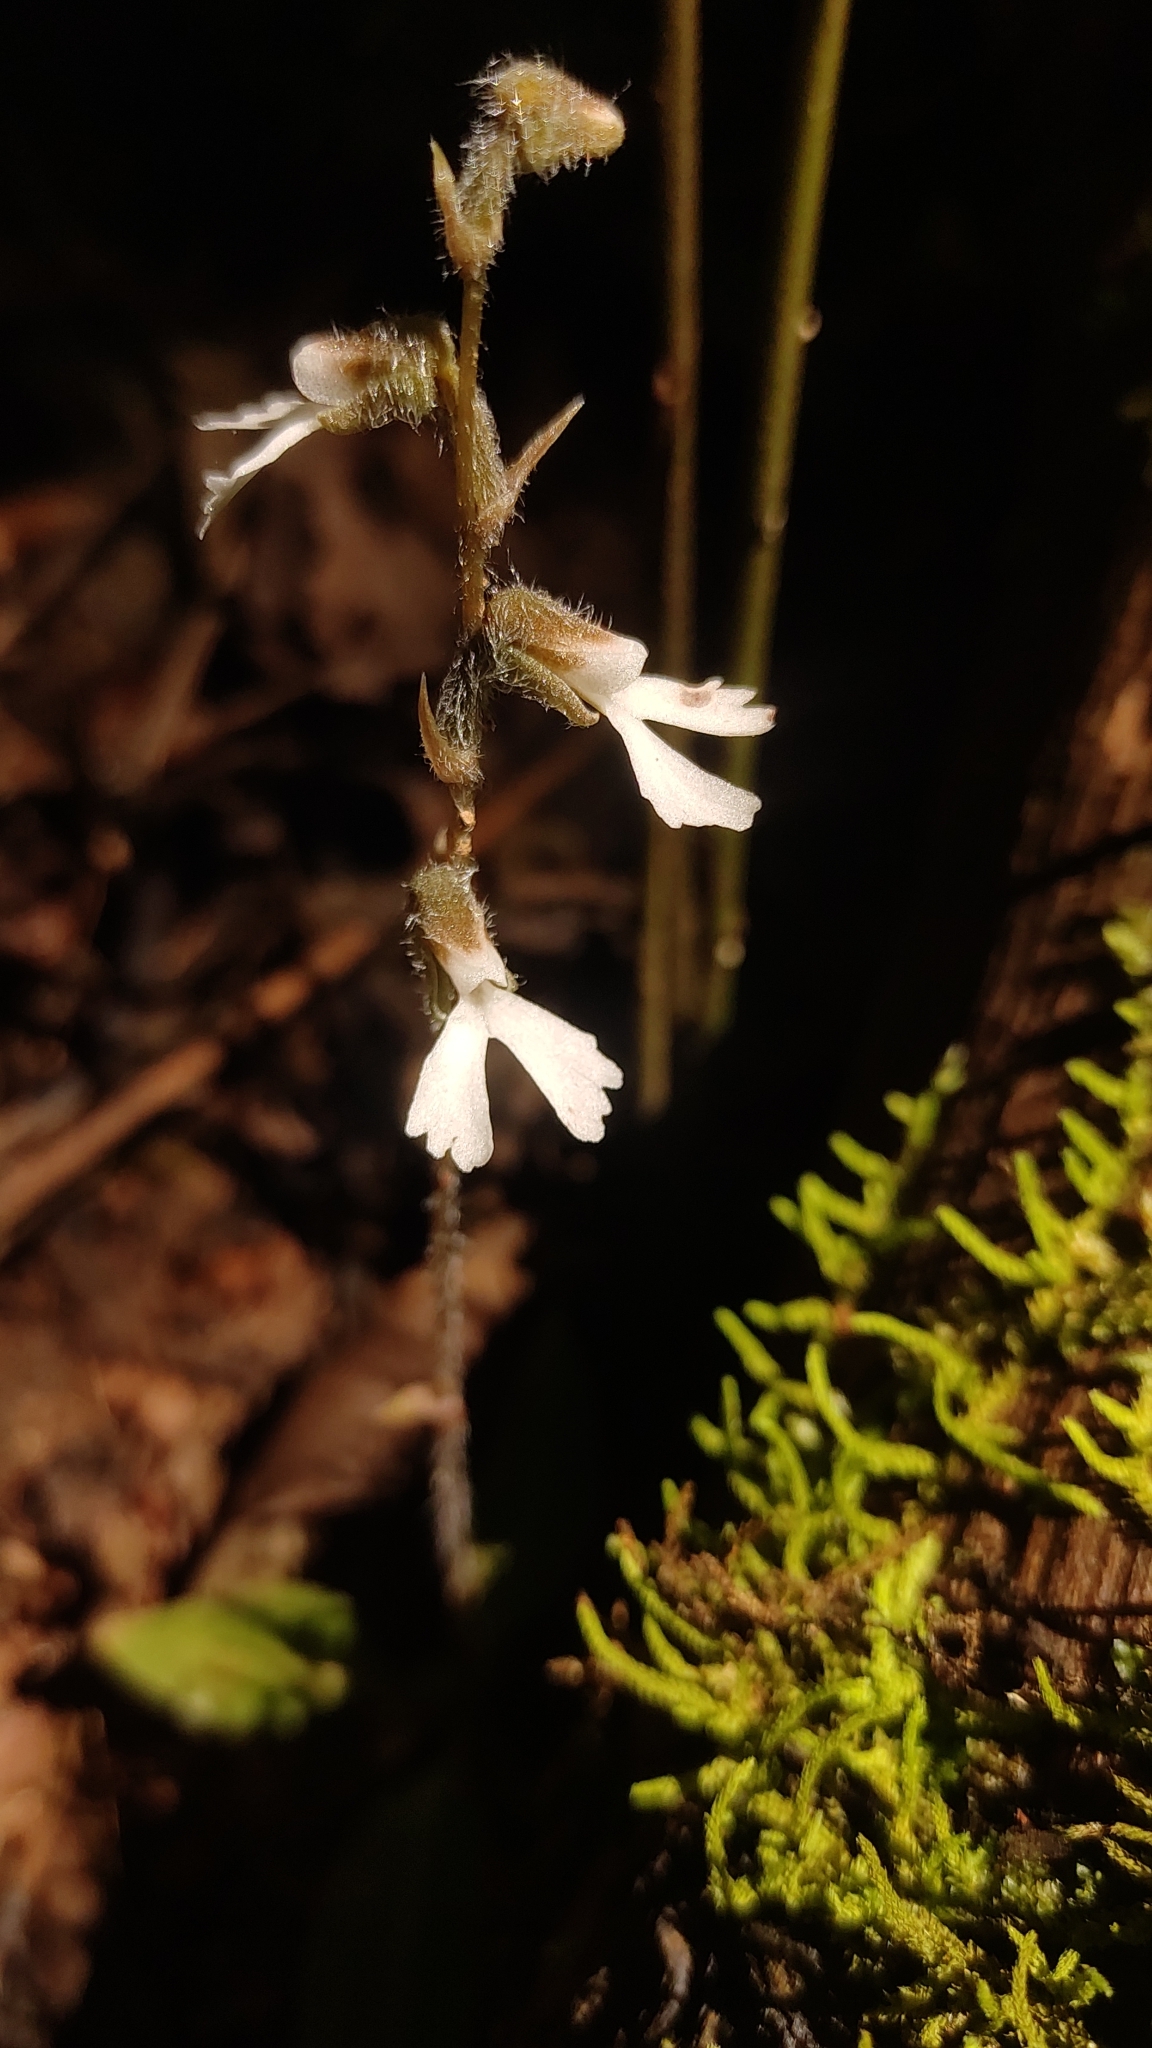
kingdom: Plantae
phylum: Tracheophyta
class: Liliopsida
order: Asparagales
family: Orchidaceae
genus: Zeuxine
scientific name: Zeuxine longilabris
